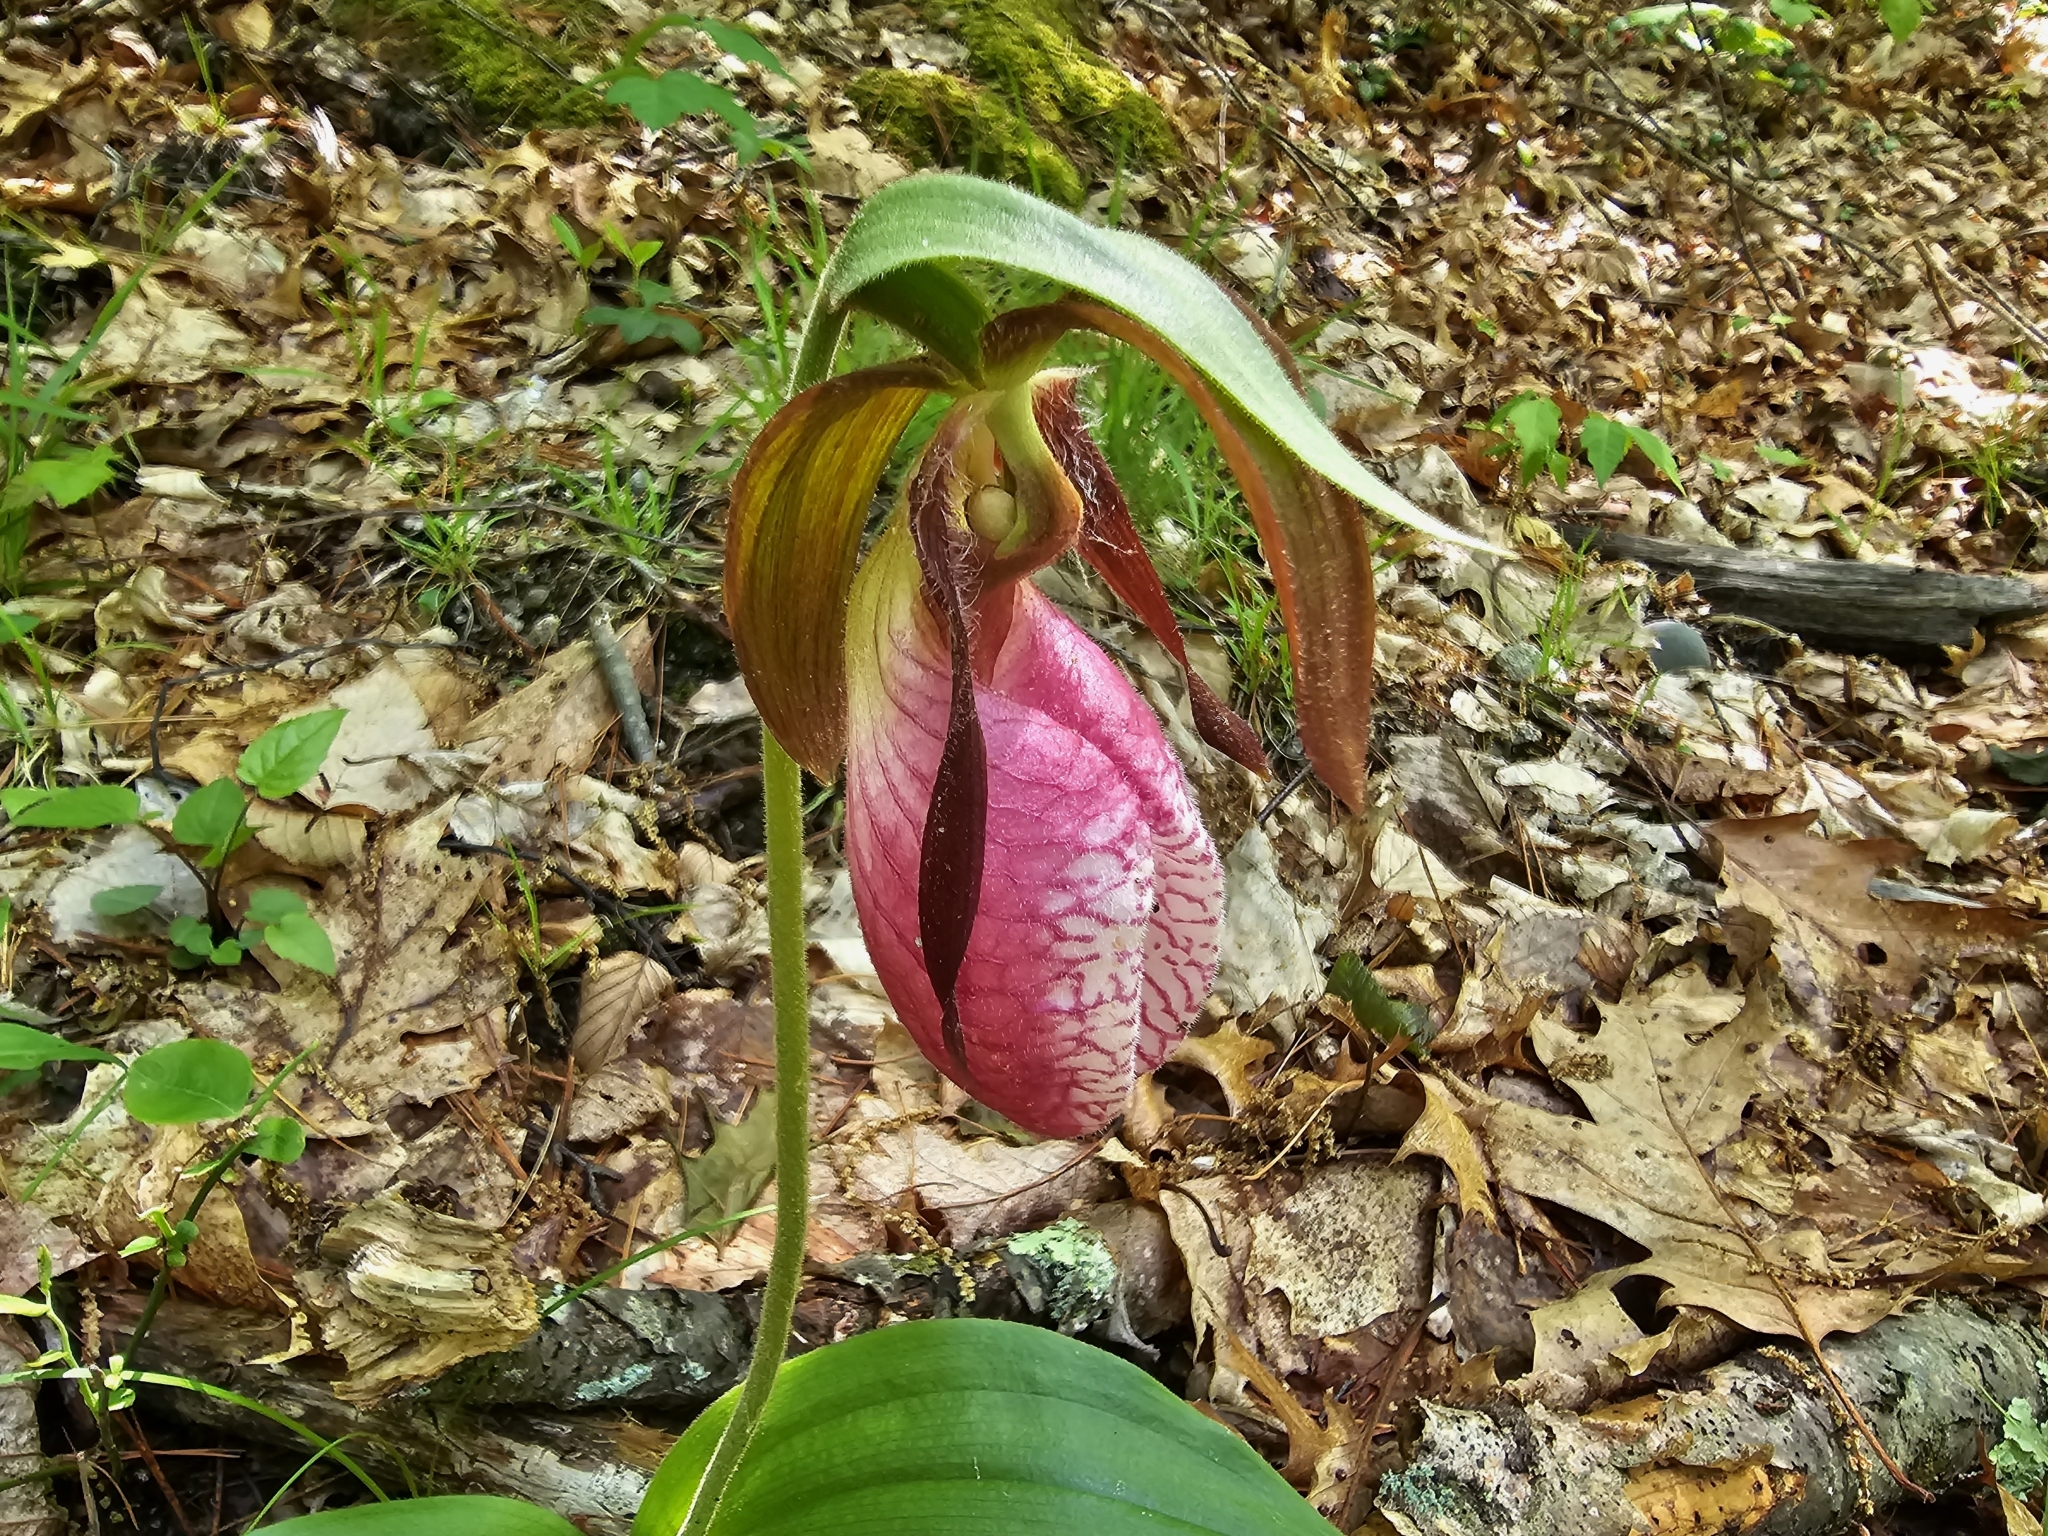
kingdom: Plantae
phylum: Tracheophyta
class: Liliopsida
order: Asparagales
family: Orchidaceae
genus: Cypripedium
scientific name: Cypripedium acaule
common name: Pink lady's-slipper
